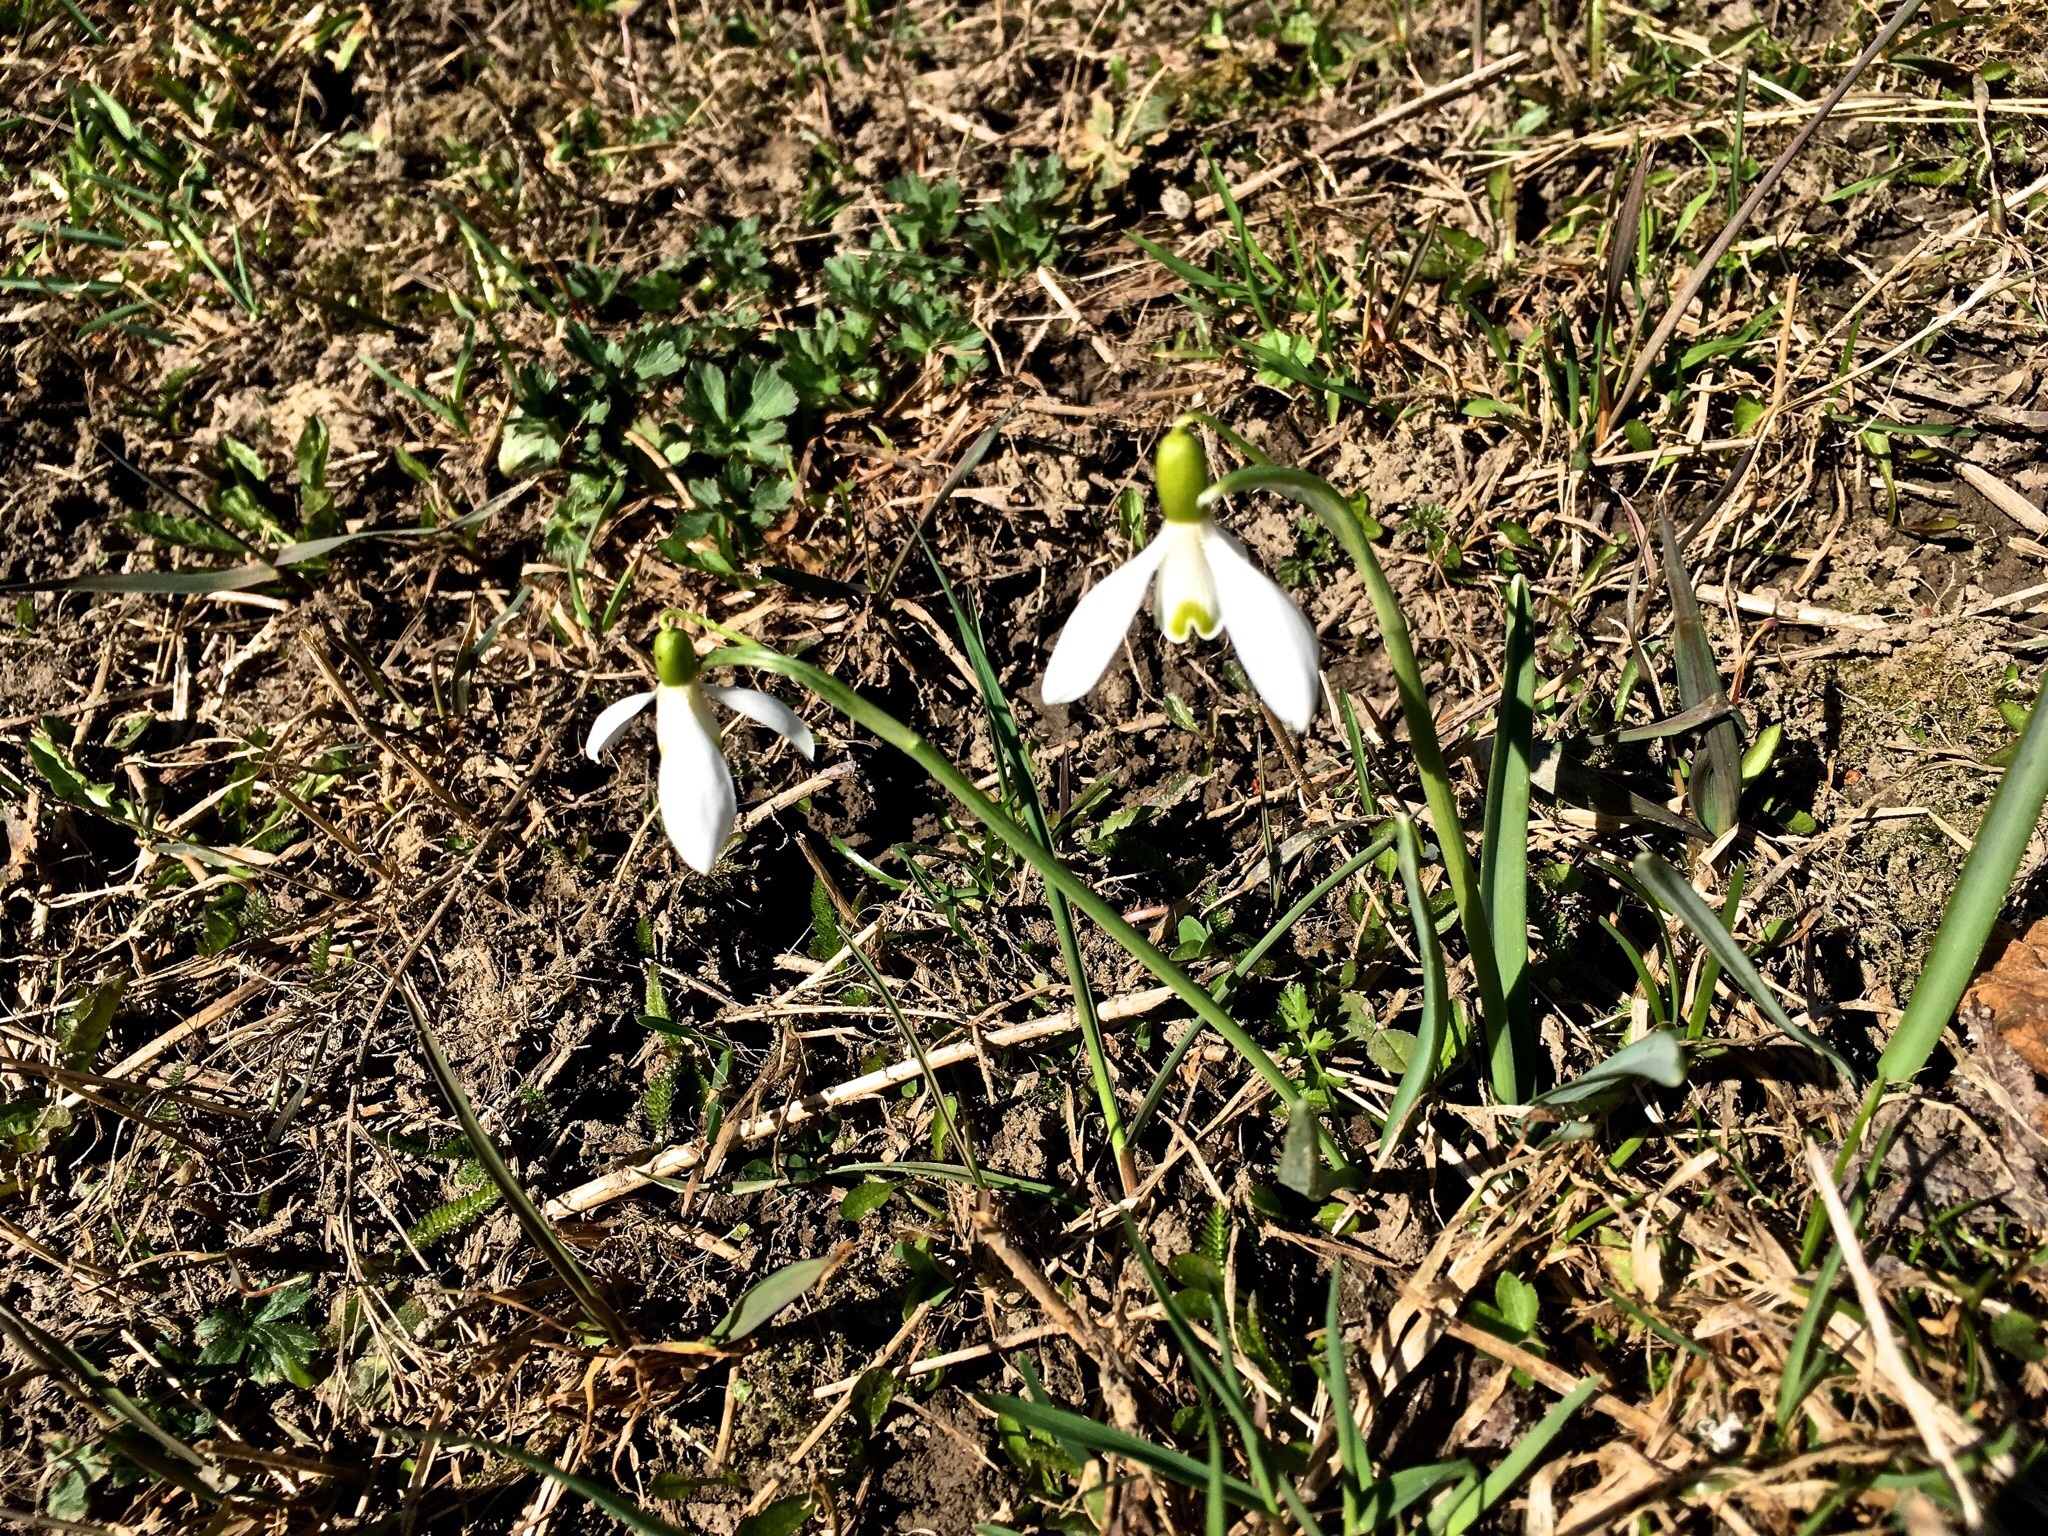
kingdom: Plantae
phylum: Tracheophyta
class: Liliopsida
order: Asparagales
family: Amaryllidaceae
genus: Galanthus
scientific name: Galanthus nivalis
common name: Snowdrop
